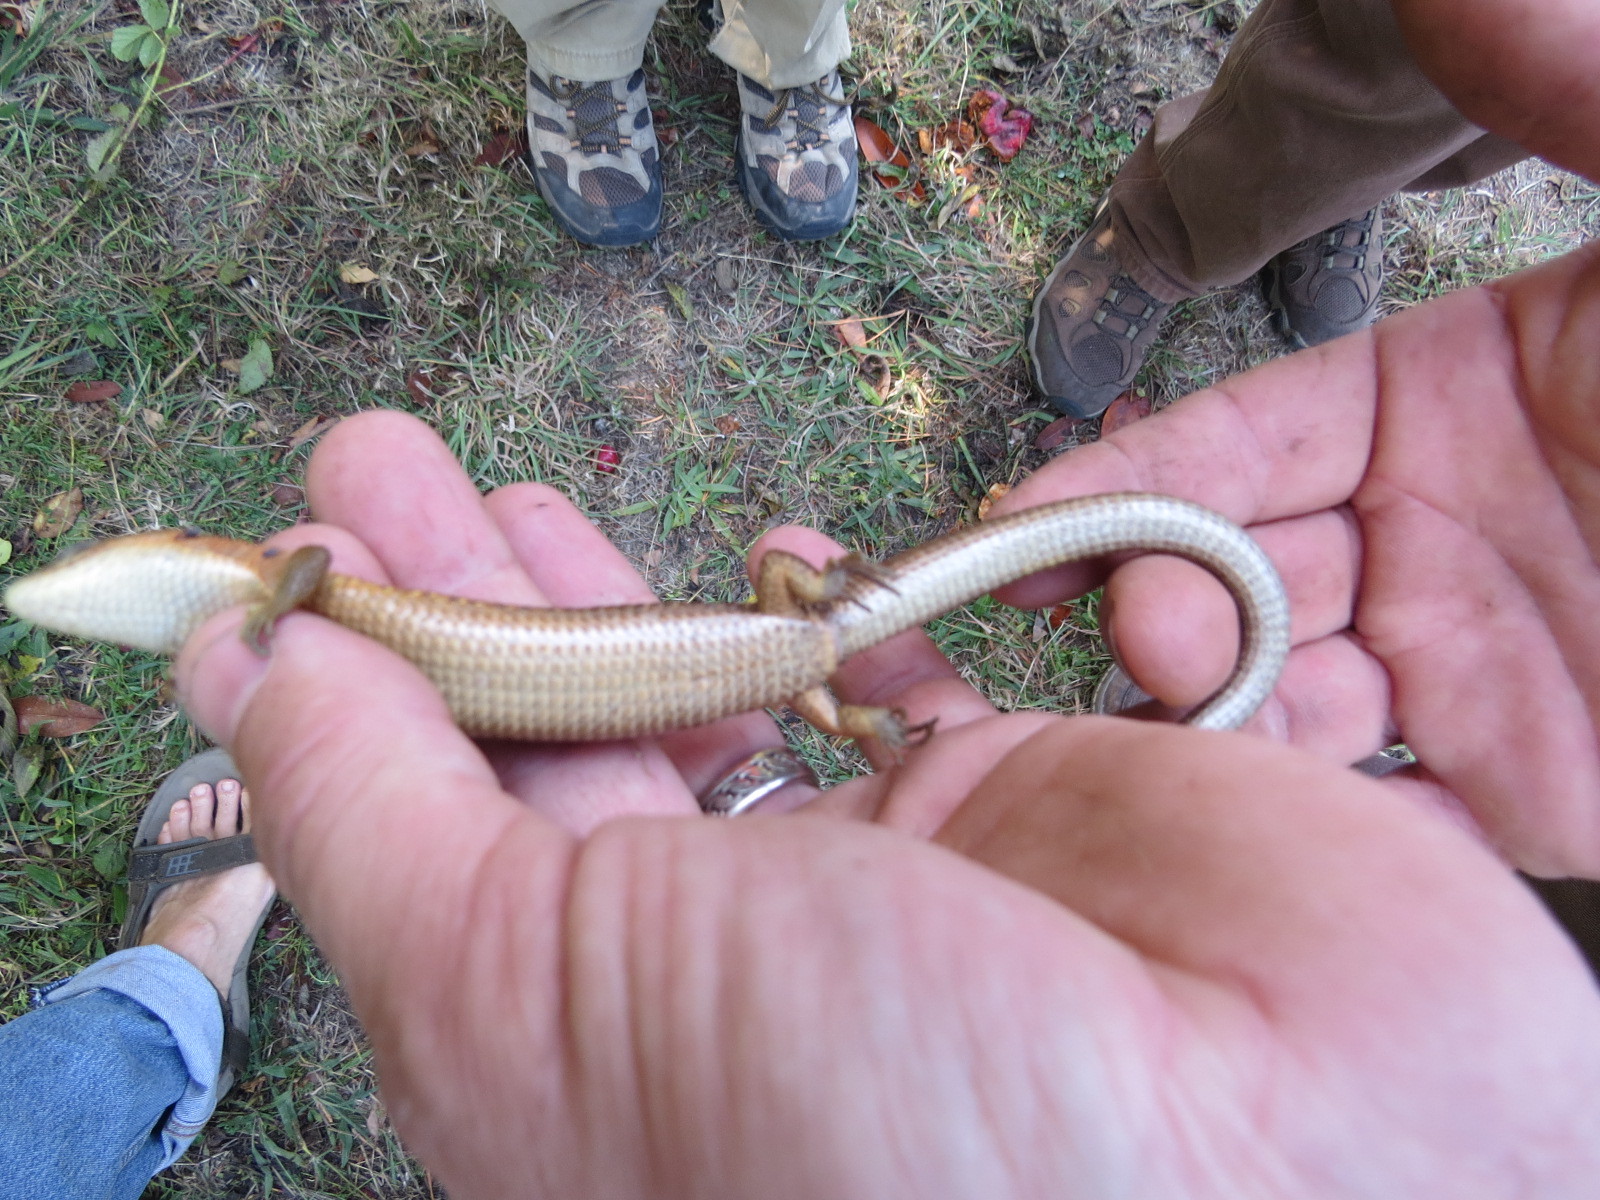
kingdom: Animalia
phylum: Chordata
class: Squamata
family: Anguidae
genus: Elgaria
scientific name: Elgaria coerulea
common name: Northern alligator lizard
